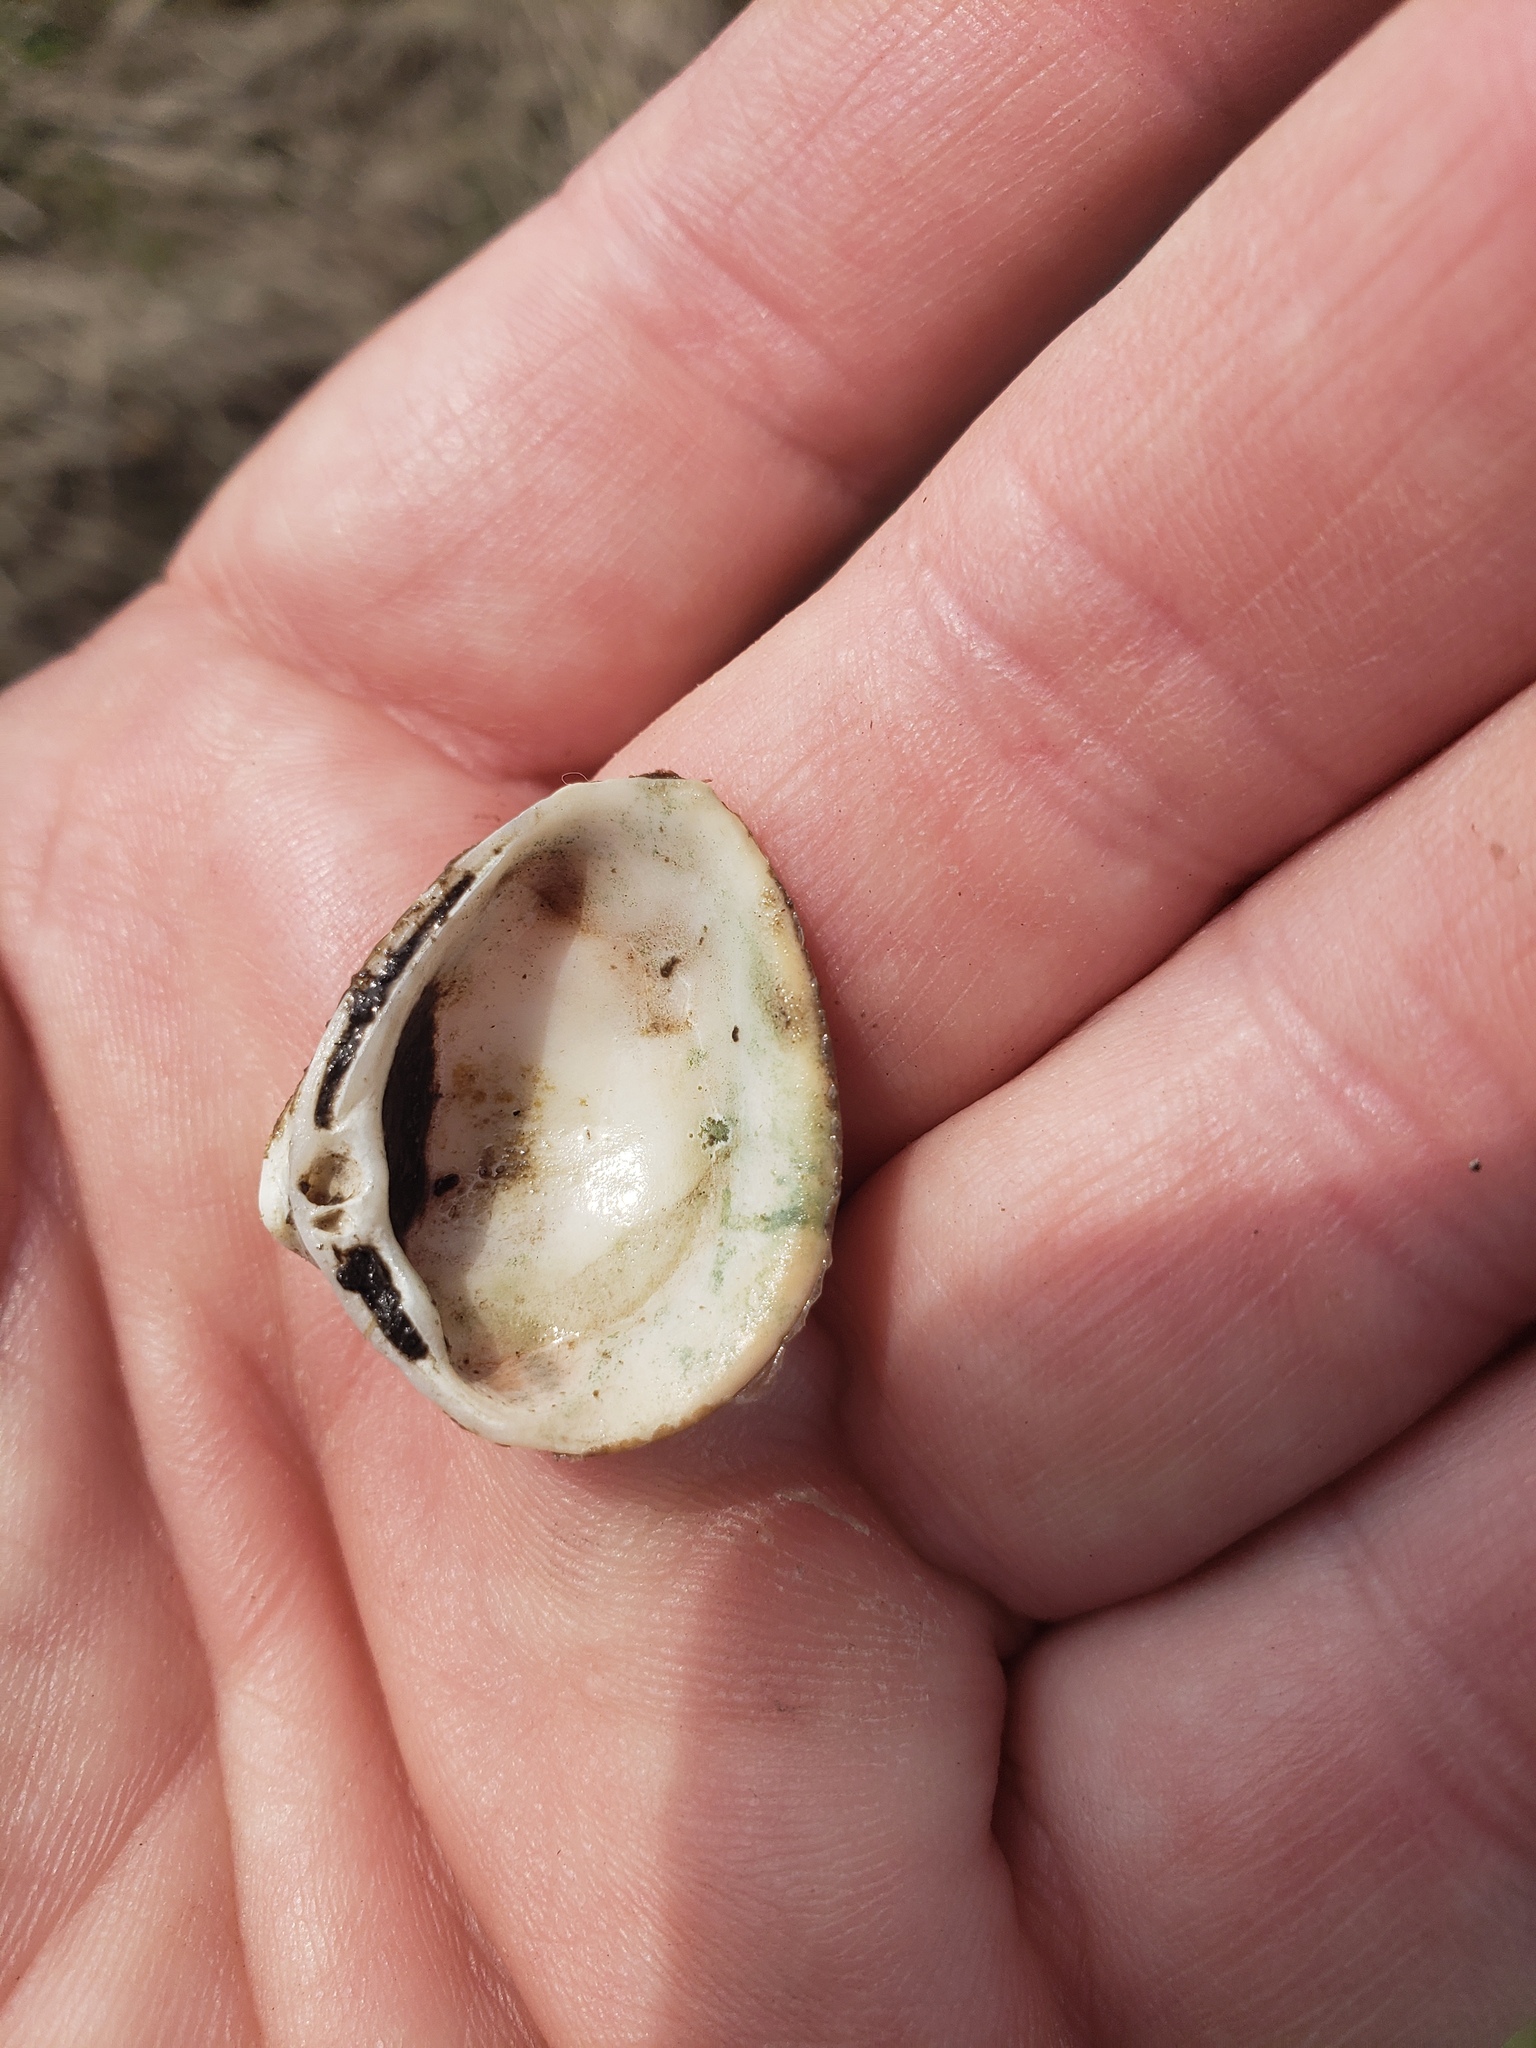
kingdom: Animalia
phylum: Mollusca
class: Bivalvia
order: Venerida
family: Mactridae
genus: Rangia
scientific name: Rangia cuneata
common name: Atlantic rangia
